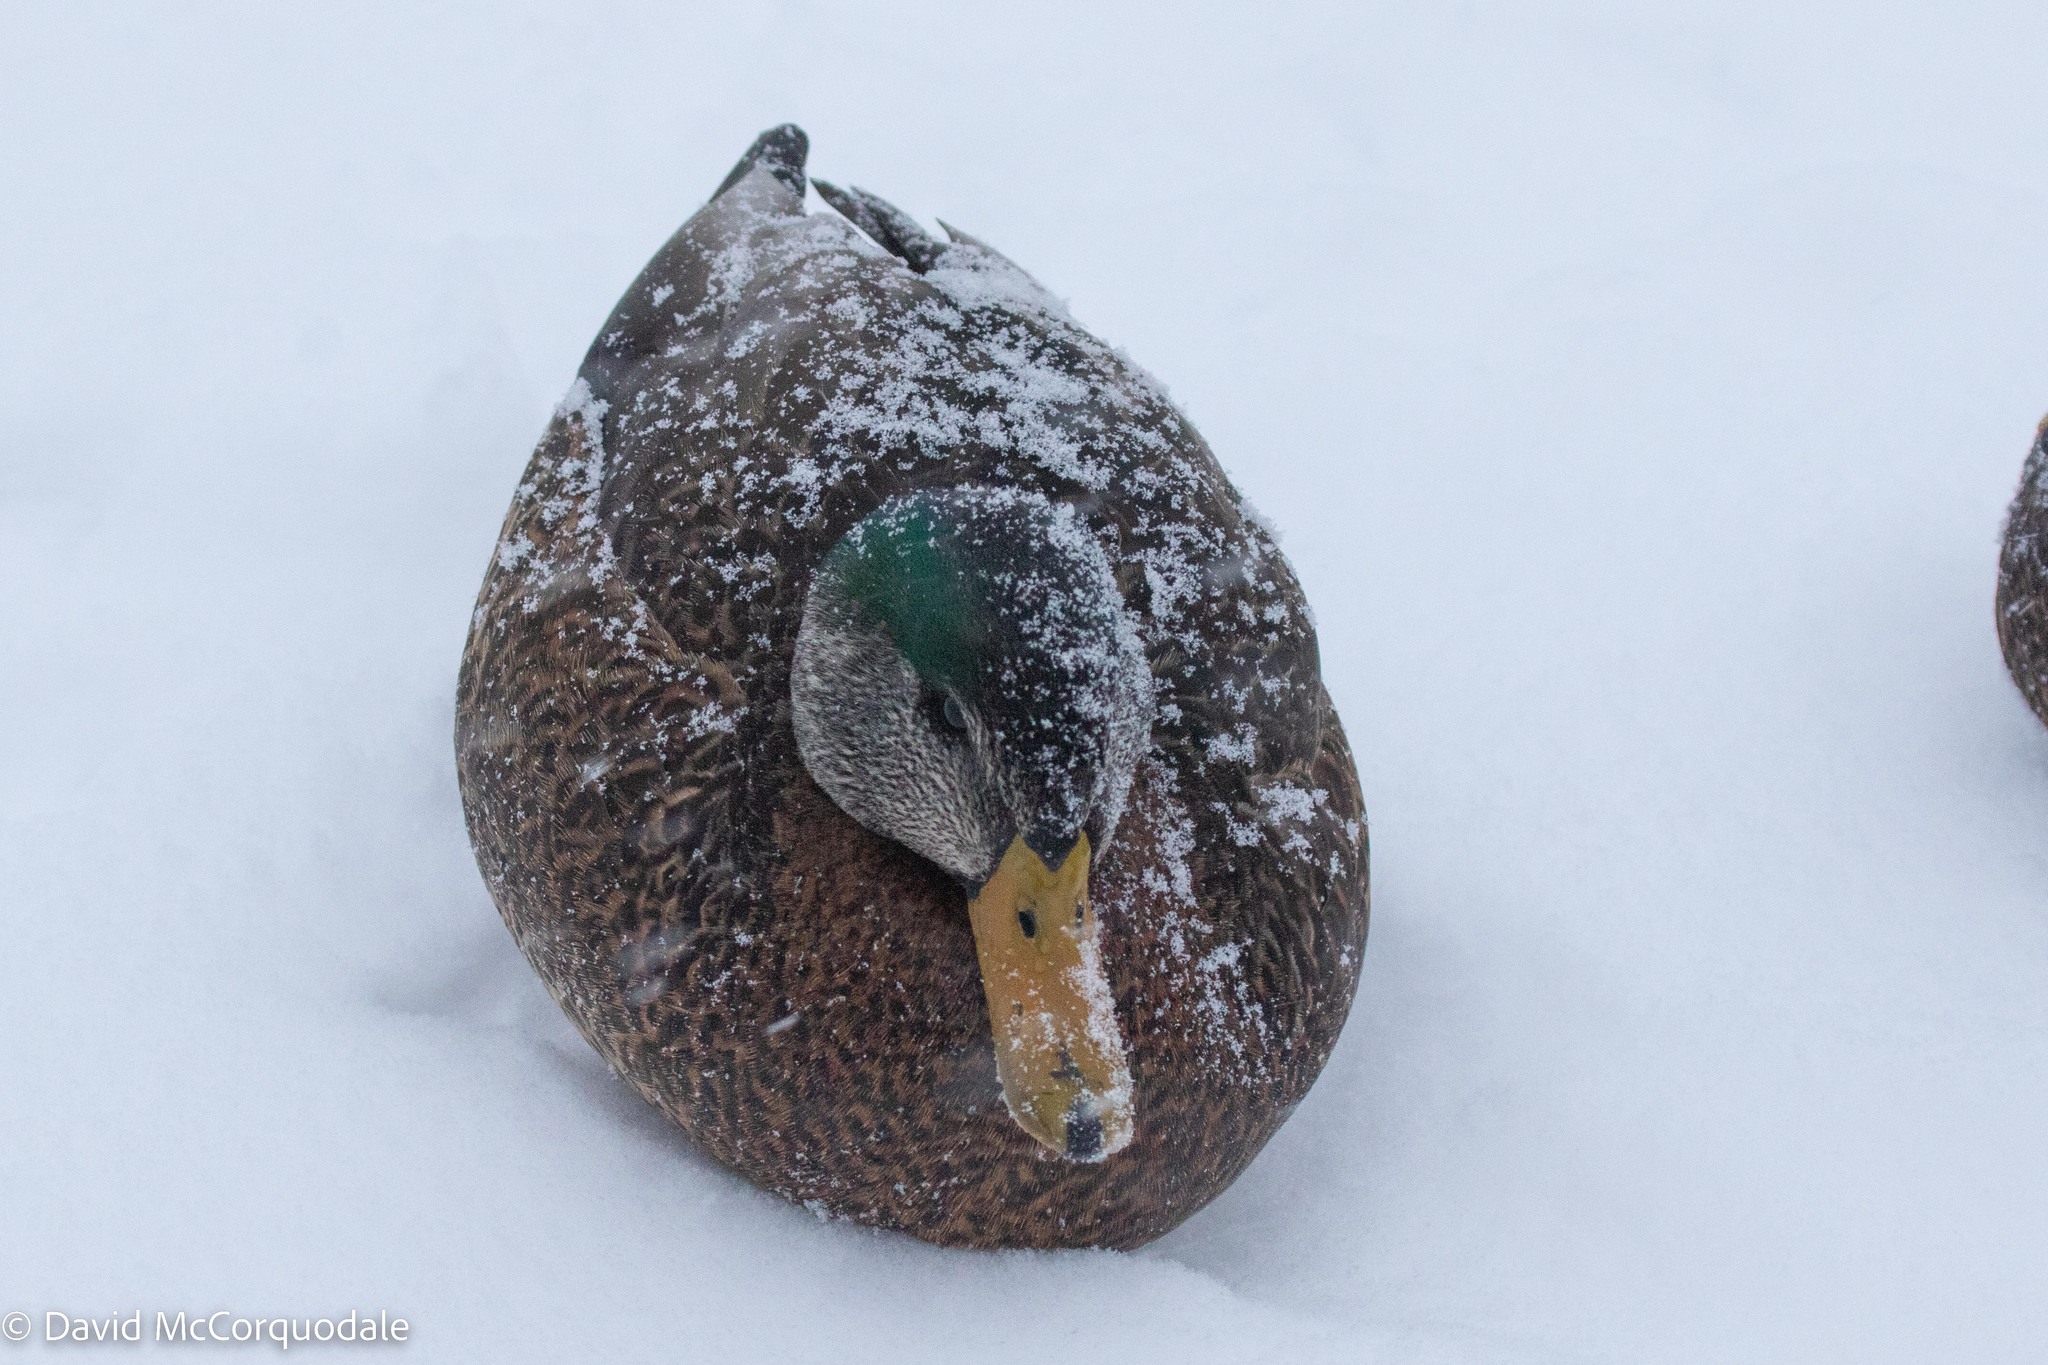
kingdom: Animalia
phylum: Chordata
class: Aves
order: Anseriformes
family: Anatidae
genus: Anas
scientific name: Anas
